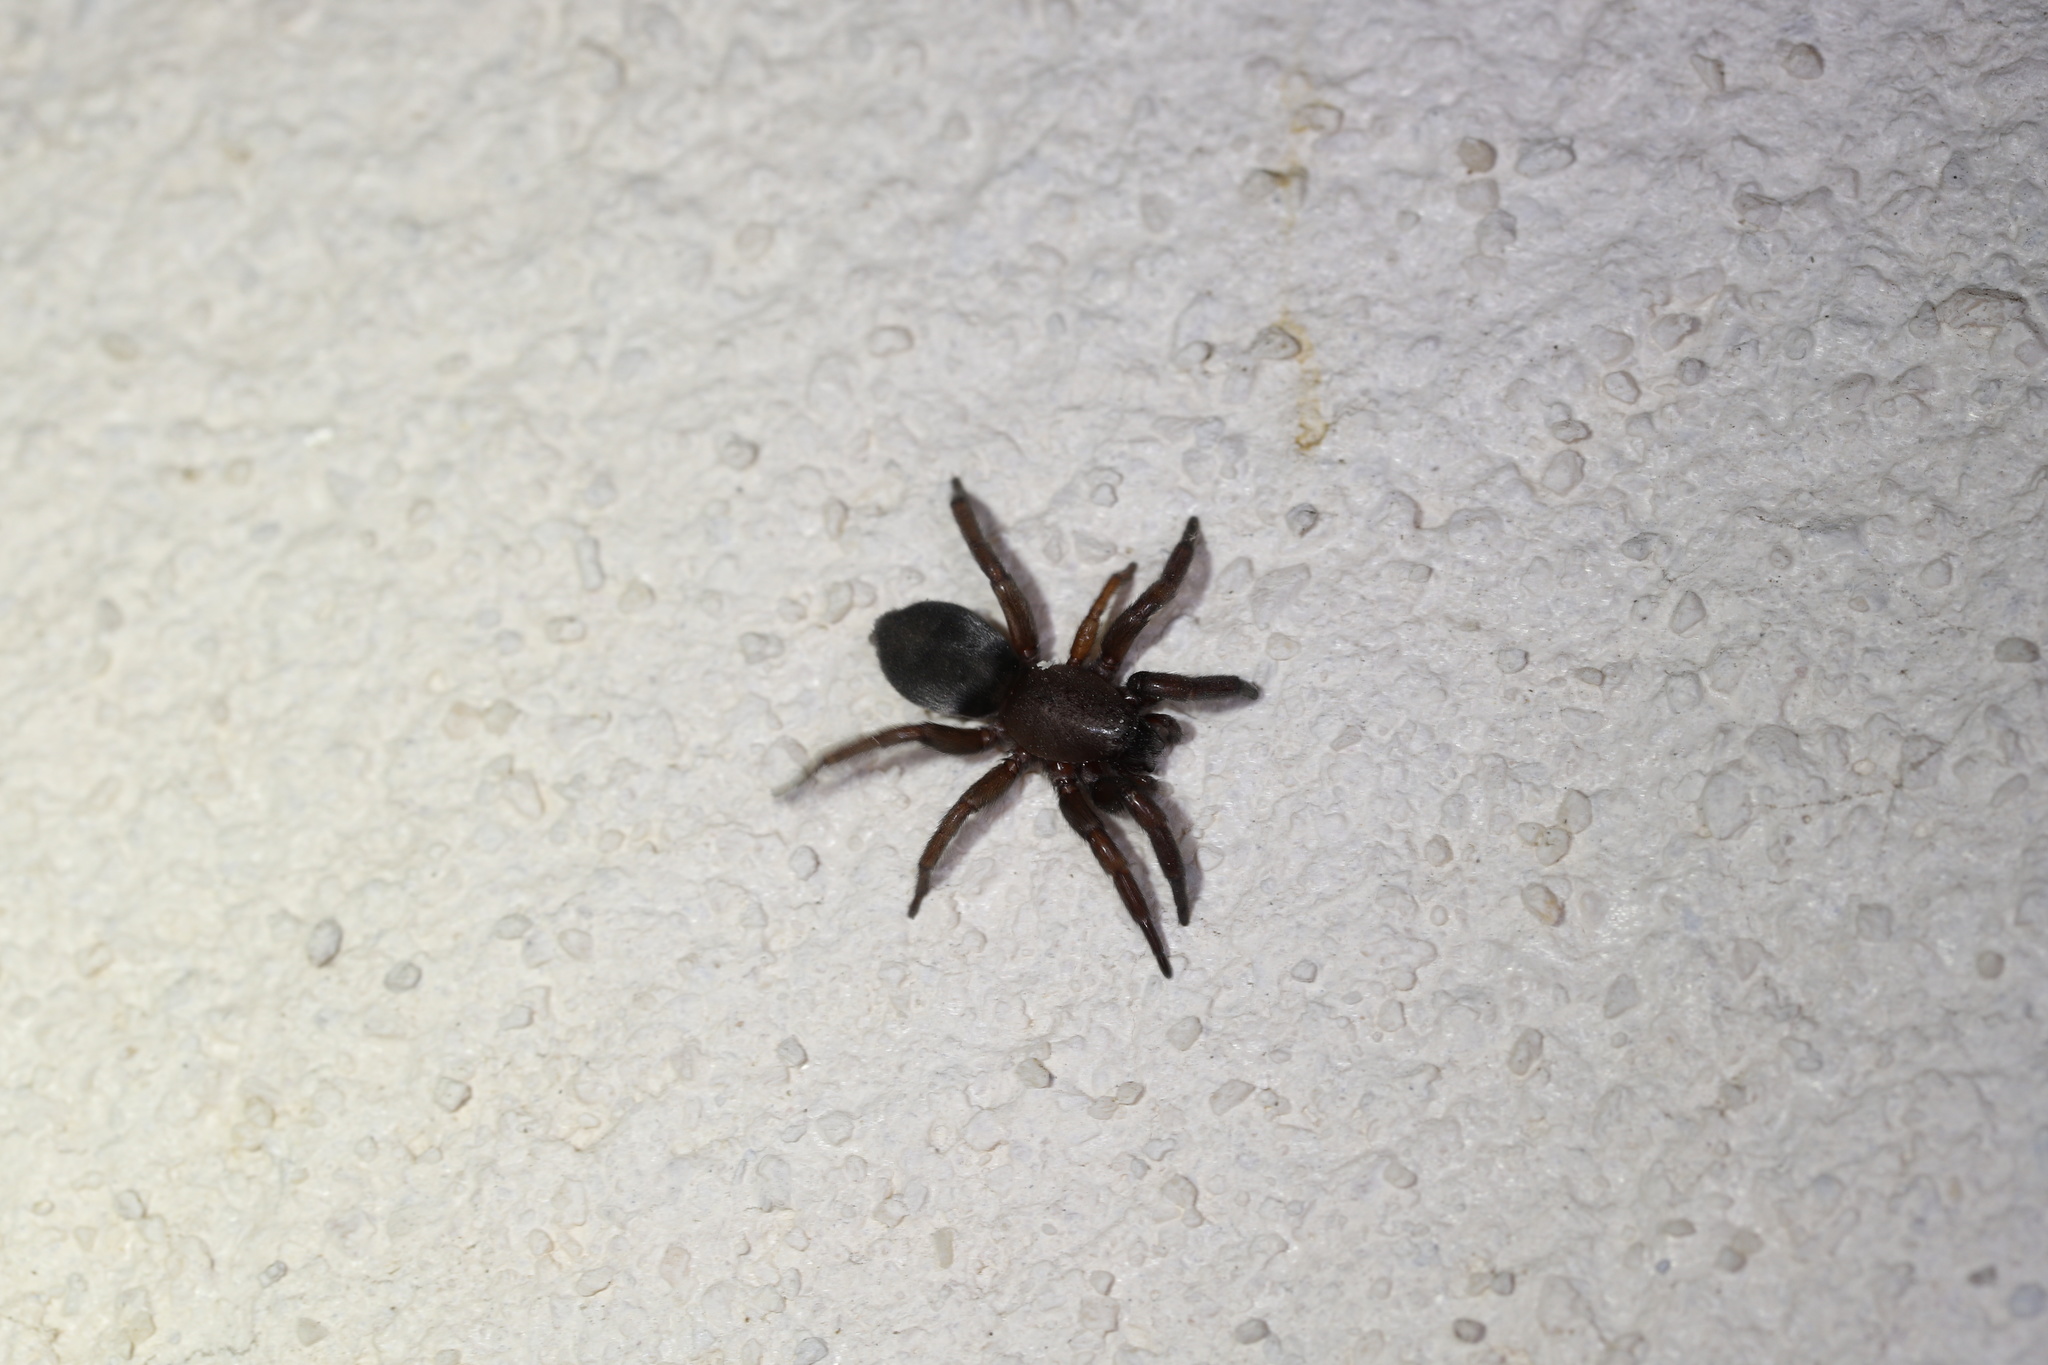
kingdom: Animalia
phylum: Arthropoda
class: Arachnida
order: Araneae
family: Gnaphosidae
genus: Scotophaeus
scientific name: Scotophaeus
